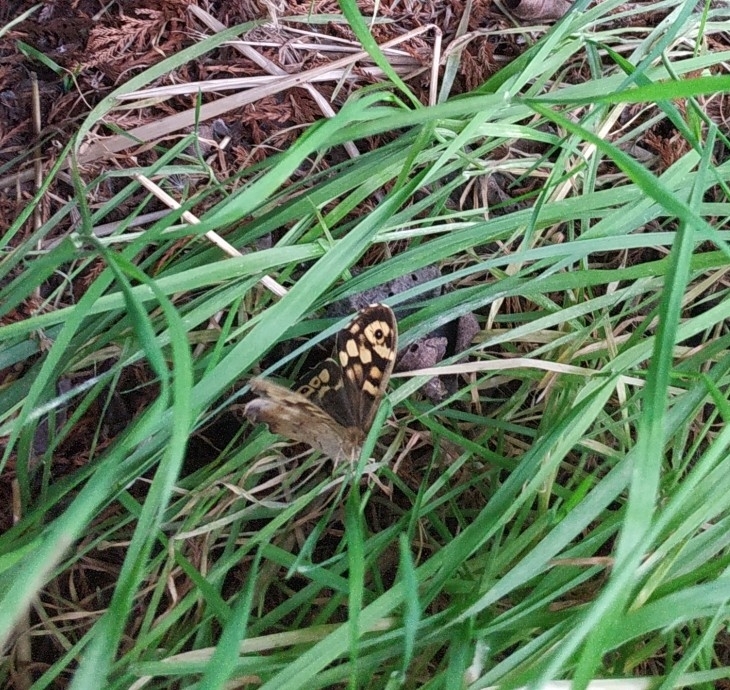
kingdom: Animalia
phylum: Arthropoda
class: Insecta
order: Lepidoptera
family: Nymphalidae
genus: Pararge
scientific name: Pararge aegeria
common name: Speckled wood
